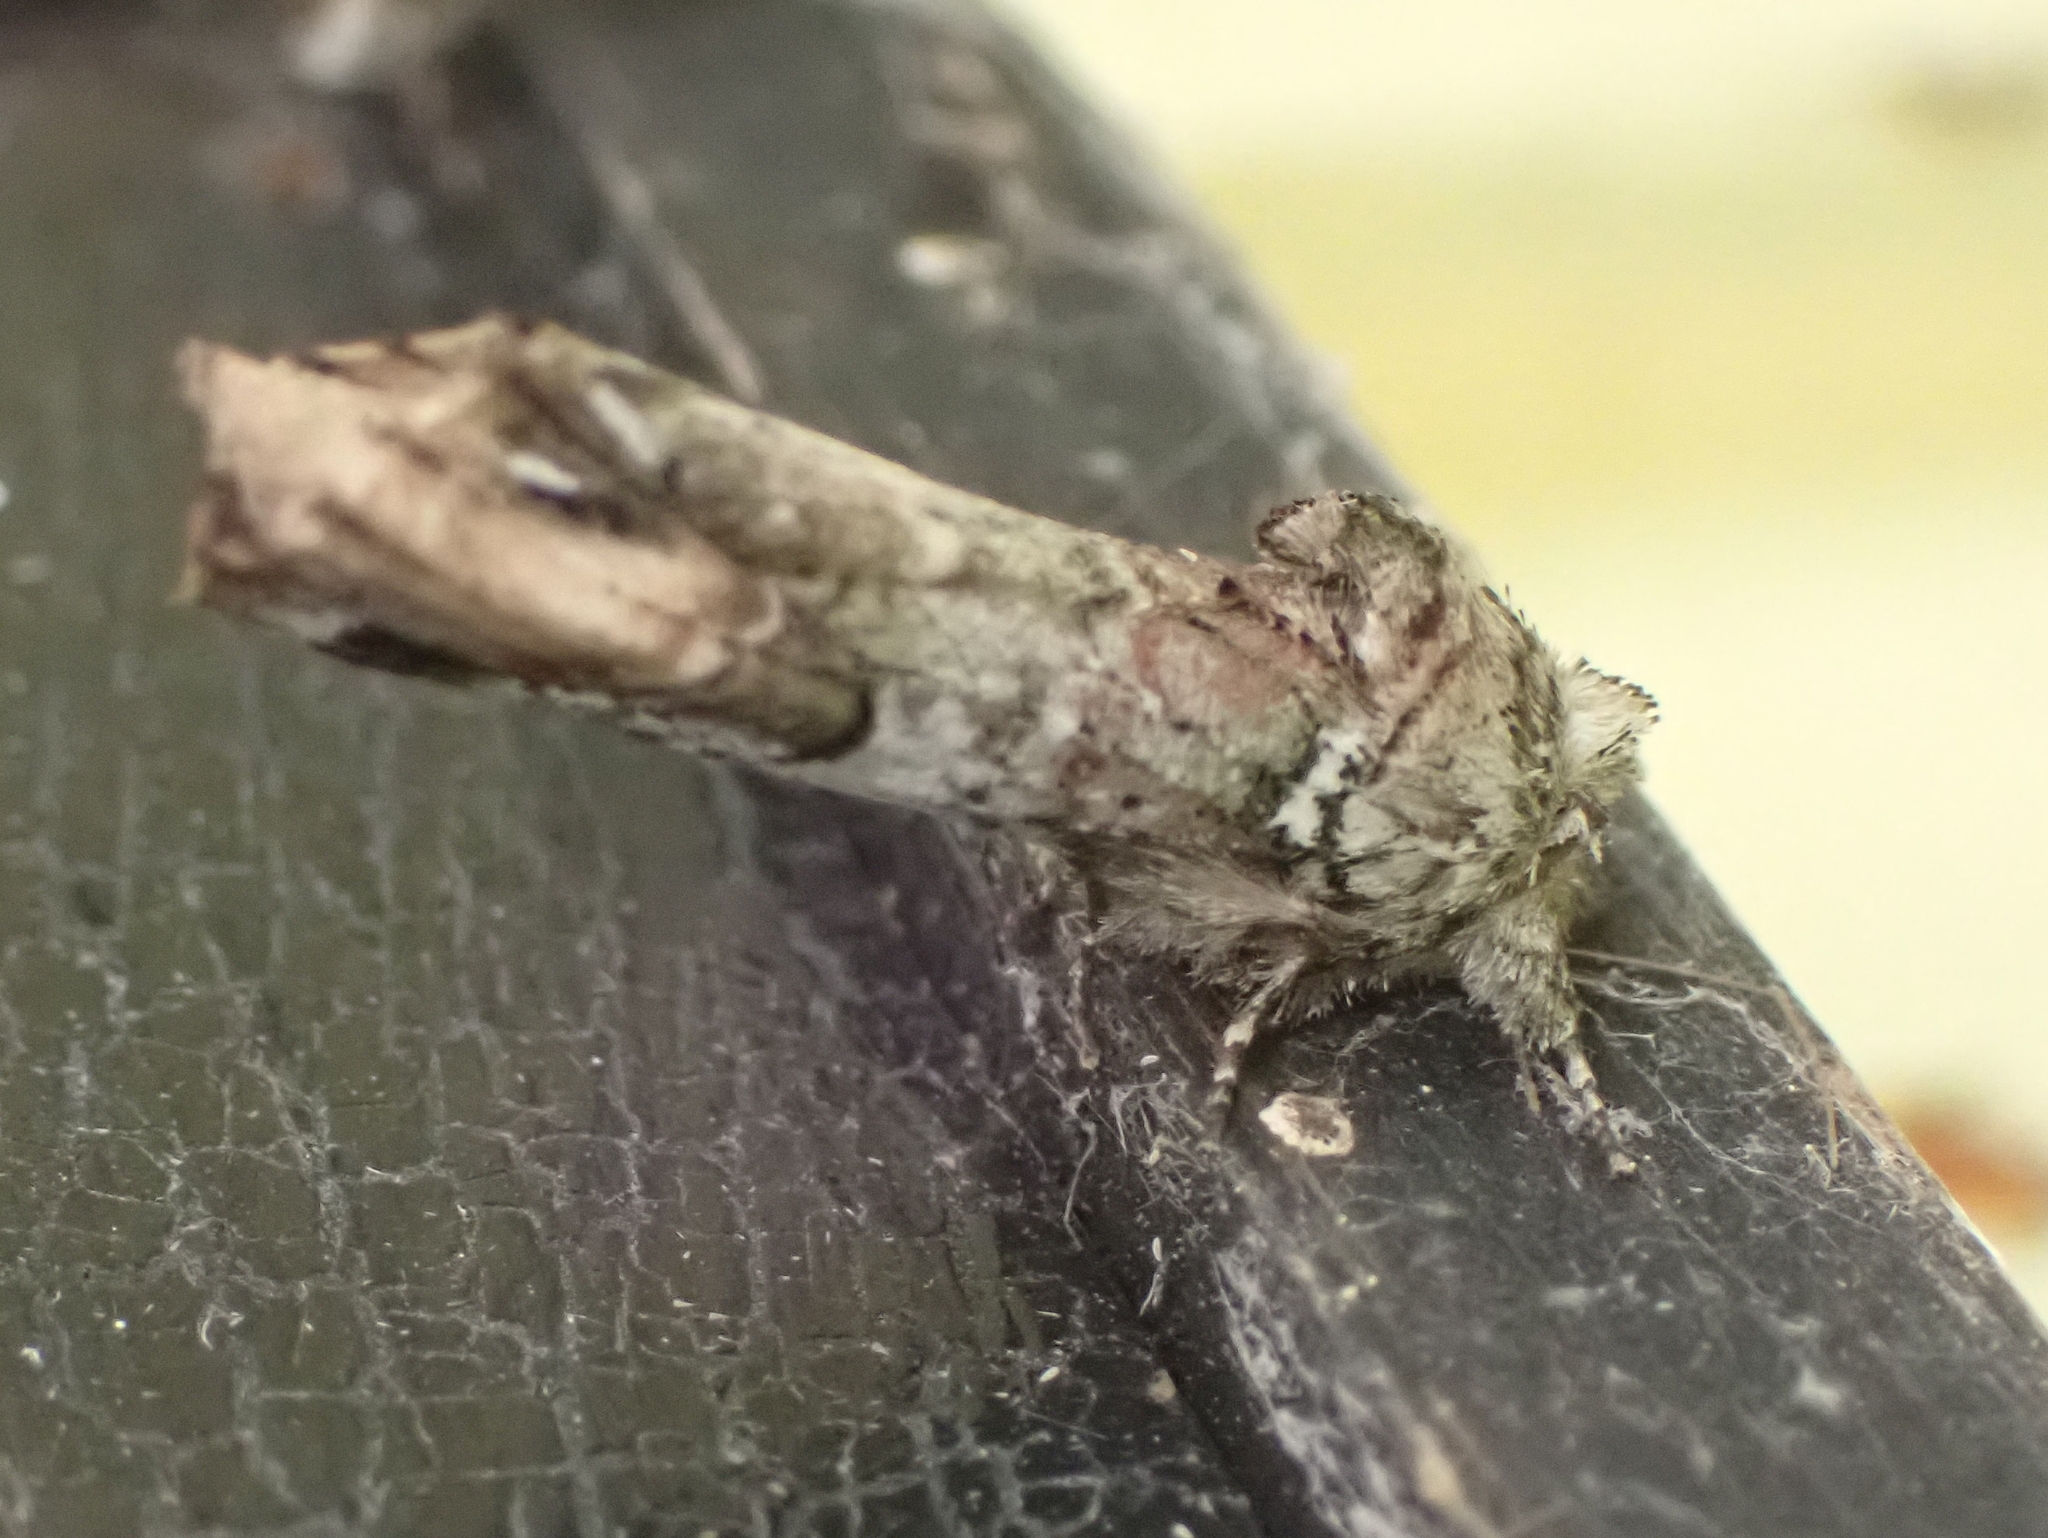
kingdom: Animalia
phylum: Arthropoda
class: Insecta
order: Lepidoptera
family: Notodontidae
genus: Schizura
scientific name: Schizura
